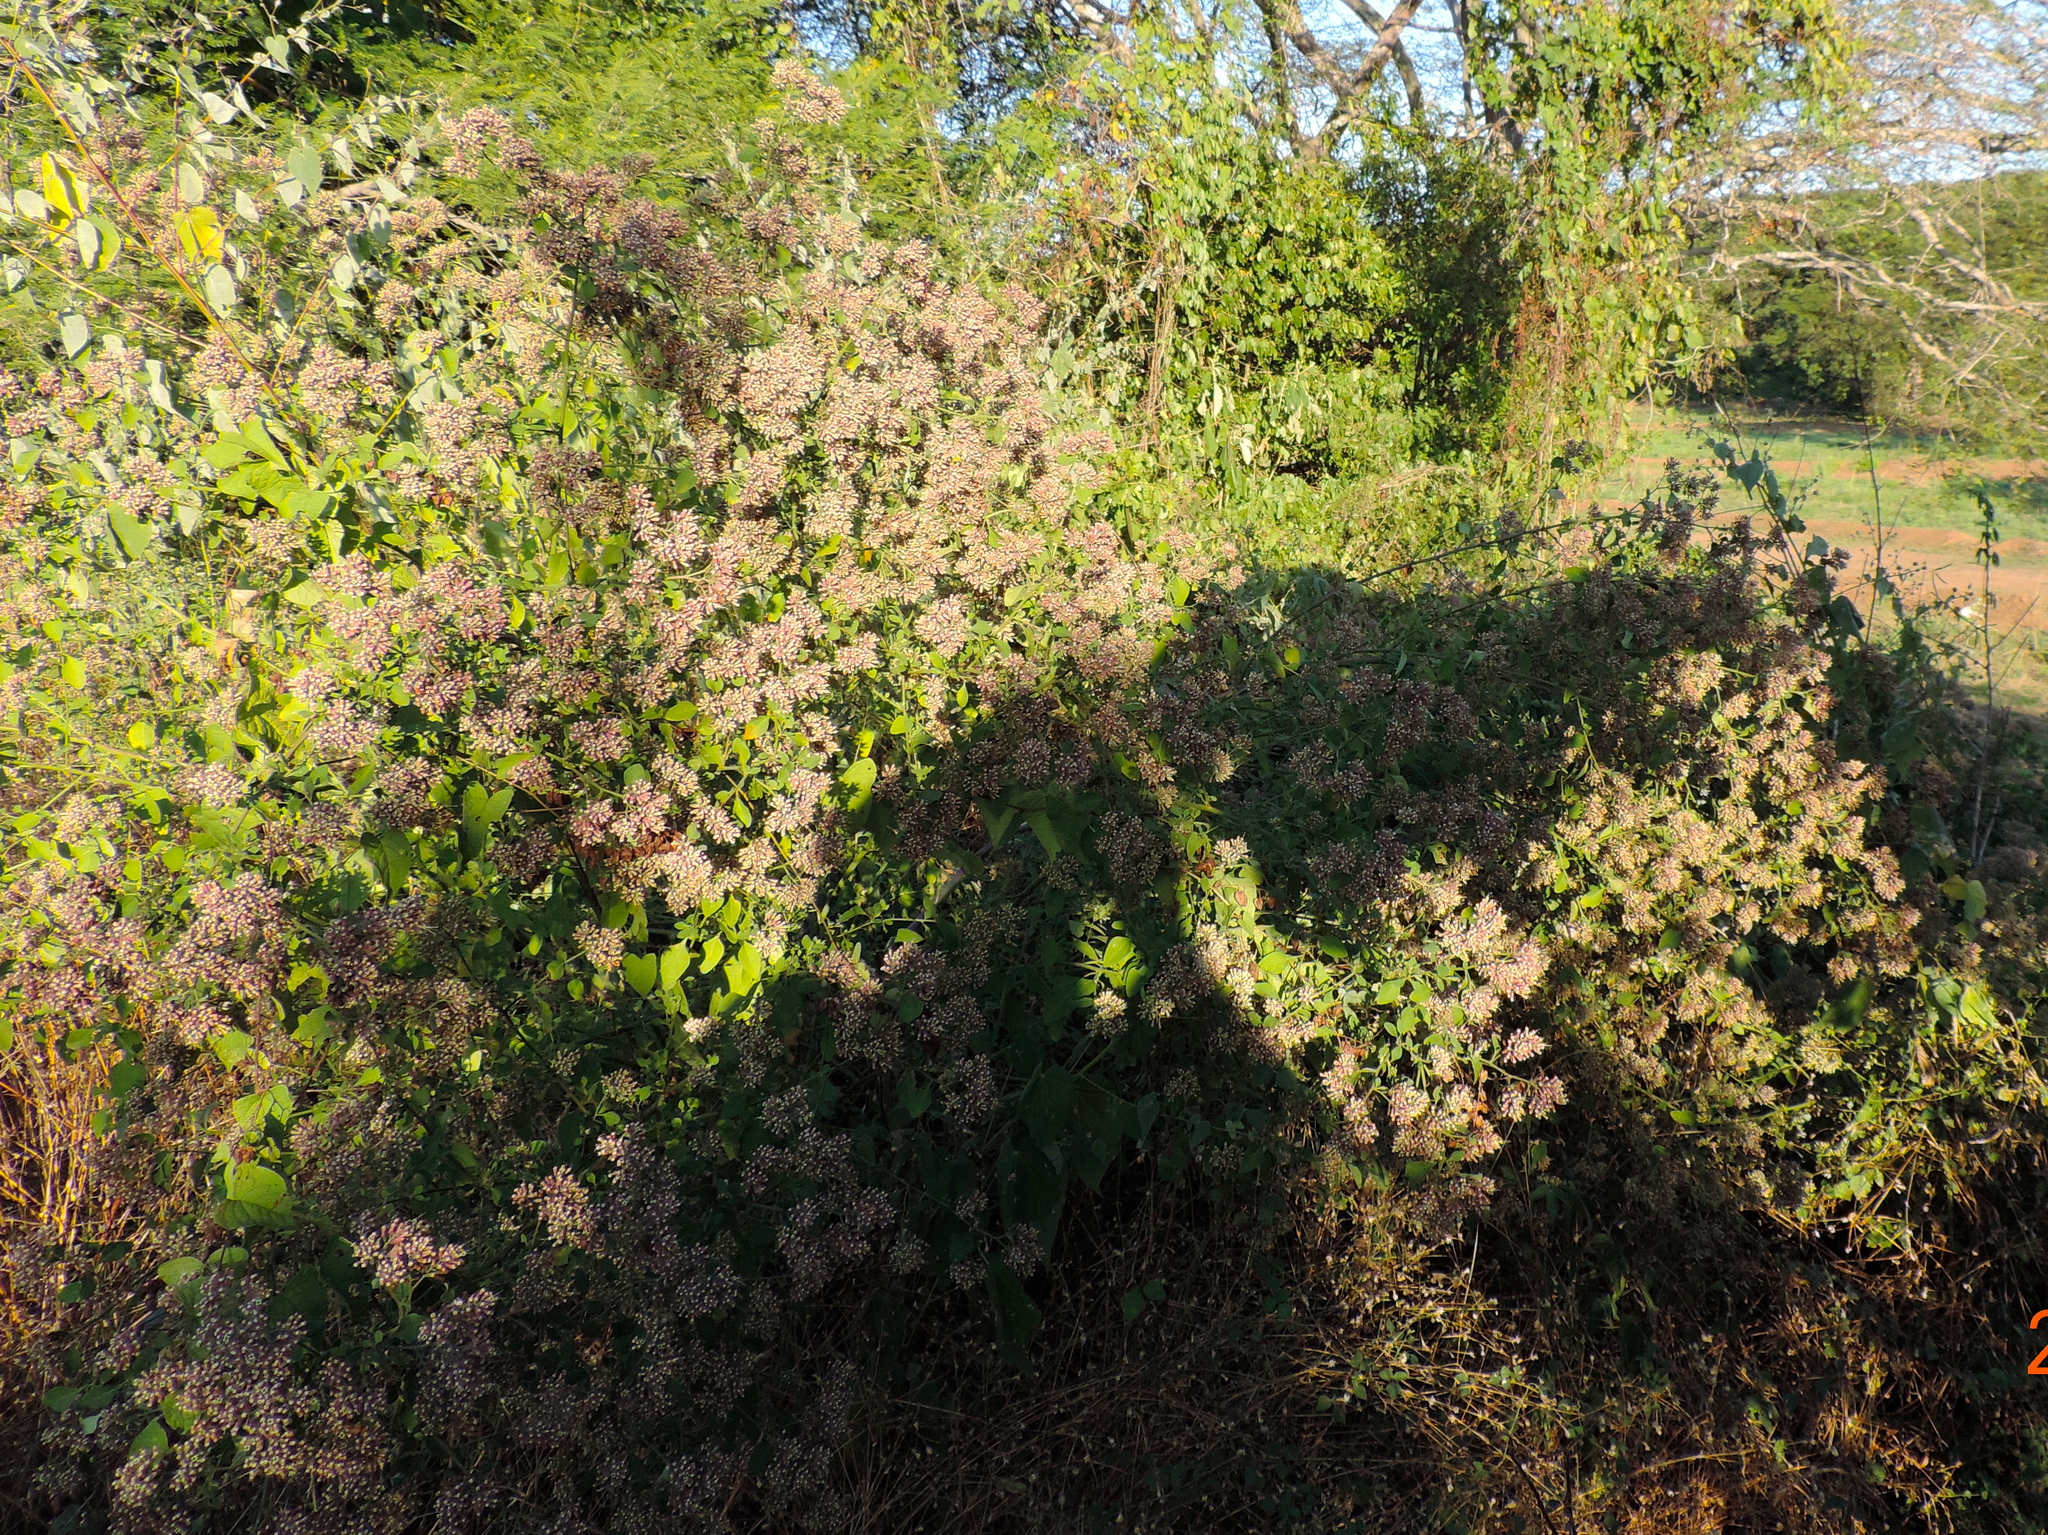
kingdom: Plantae
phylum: Tracheophyta
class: Magnoliopsida
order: Caryophyllales
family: Nyctaginaceae
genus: Salpianthus
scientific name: Salpianthus arenarius
